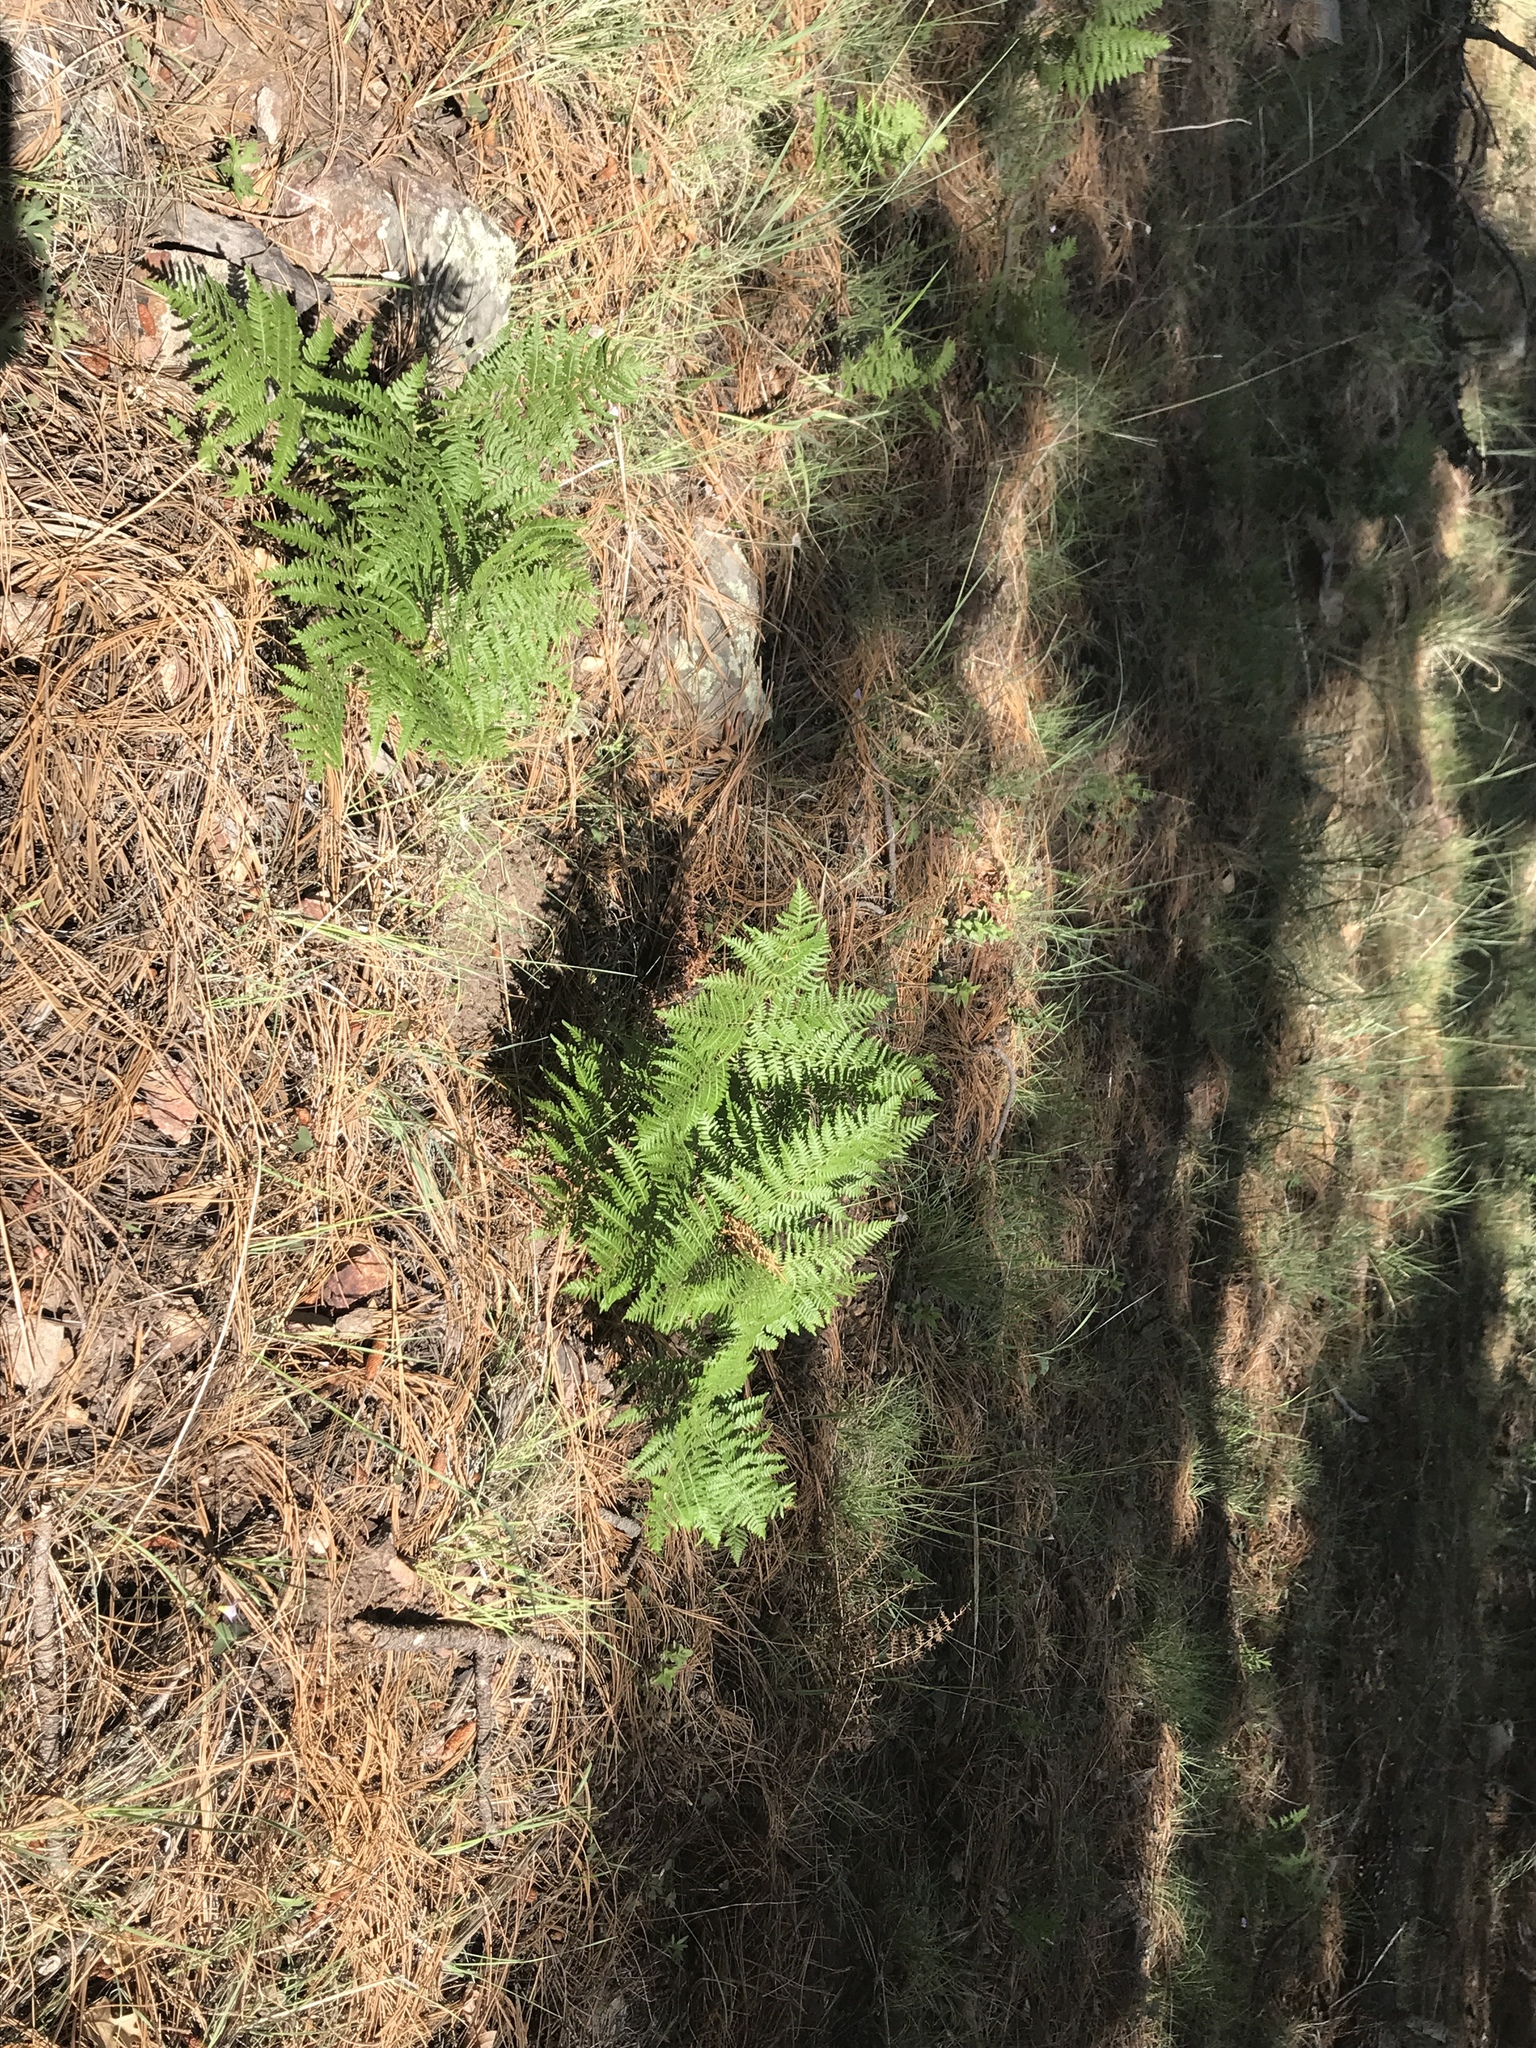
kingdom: Plantae
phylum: Tracheophyta
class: Polypodiopsida
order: Polypodiales
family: Dennstaedtiaceae
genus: Pteridium
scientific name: Pteridium aquilinum
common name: Bracken
